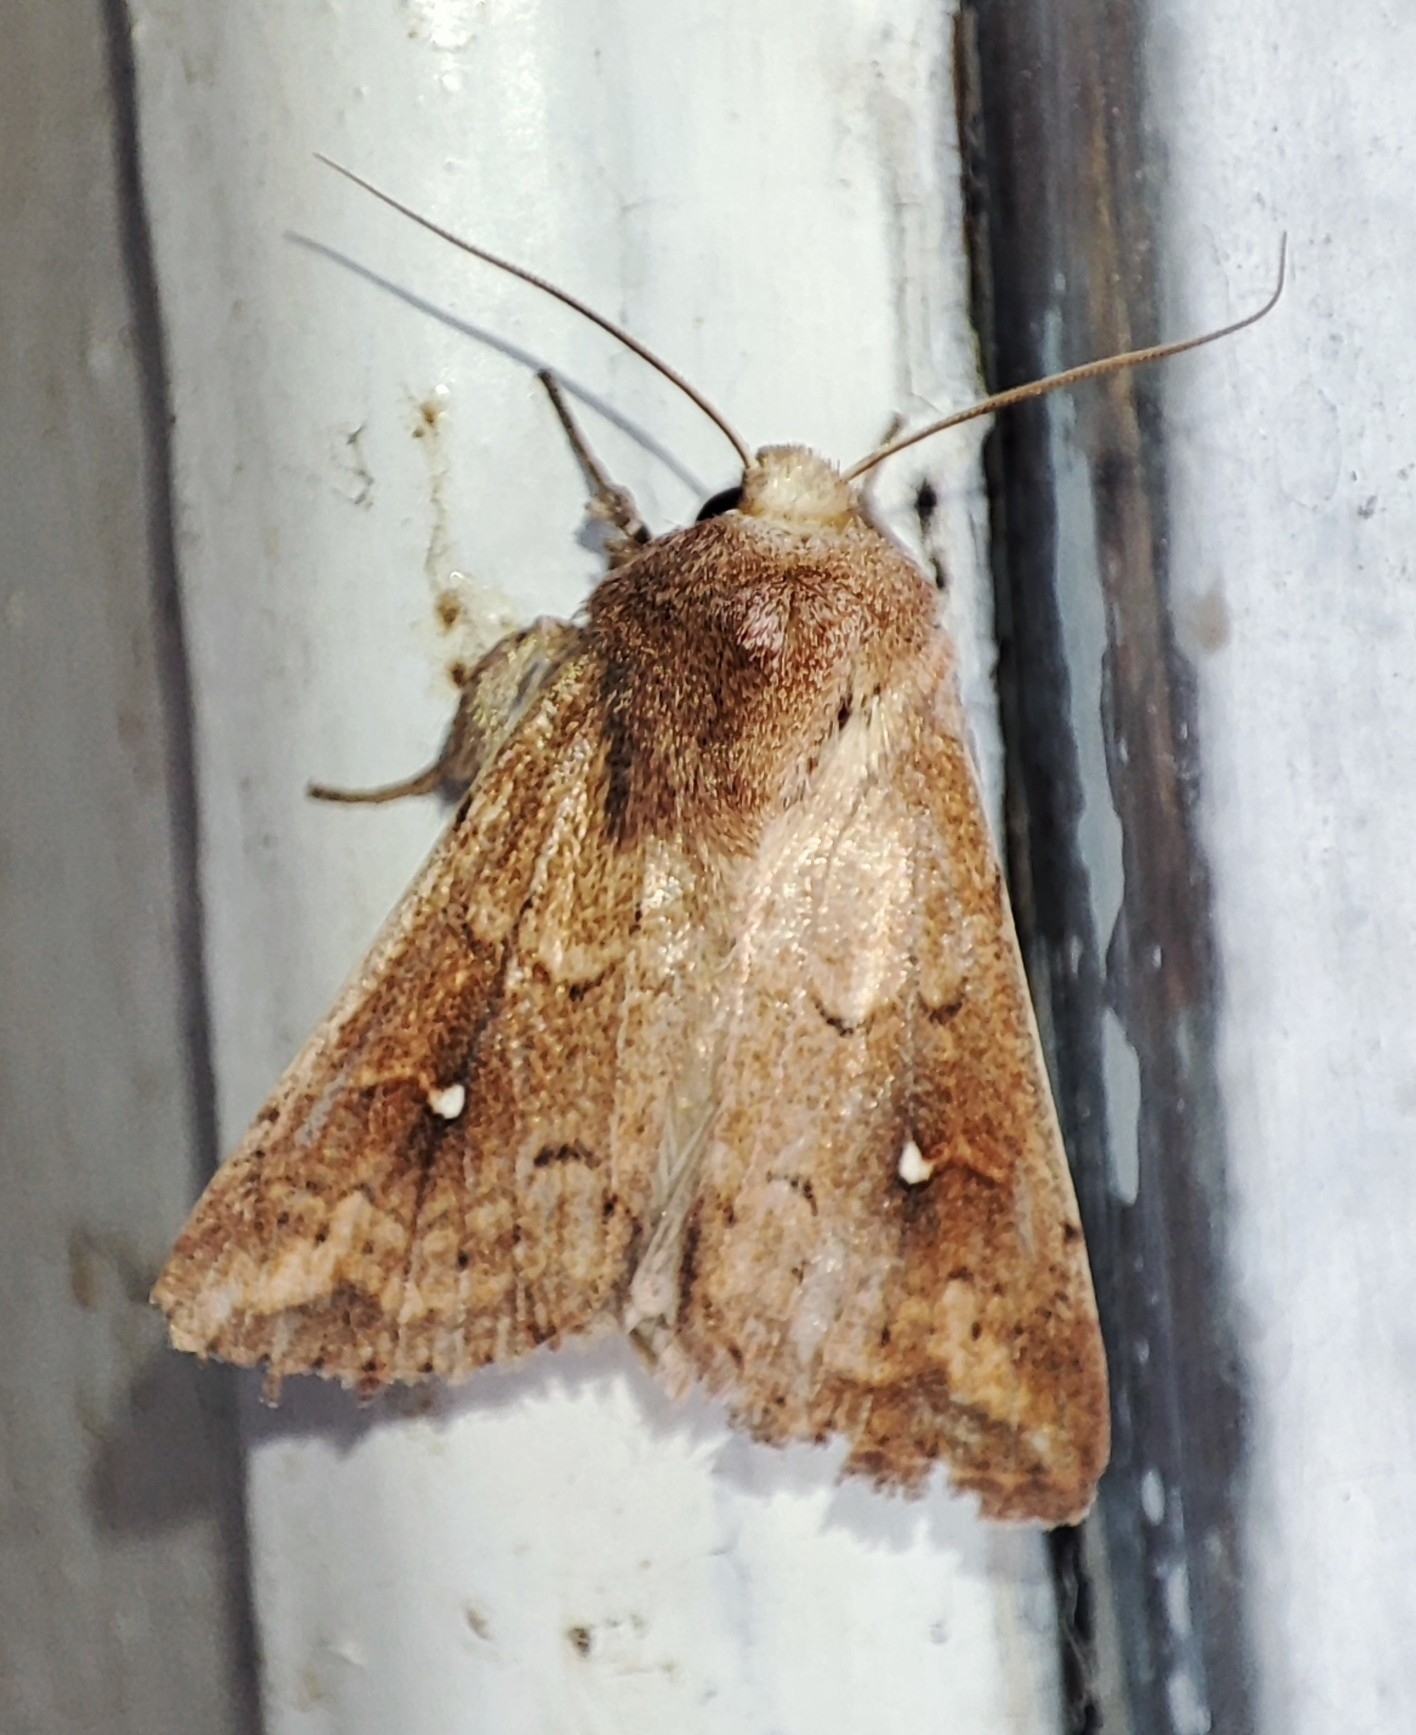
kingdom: Animalia
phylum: Arthropoda
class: Insecta
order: Lepidoptera
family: Noctuidae
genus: Mythimna
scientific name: Mythimna albipuncta
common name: White-point
